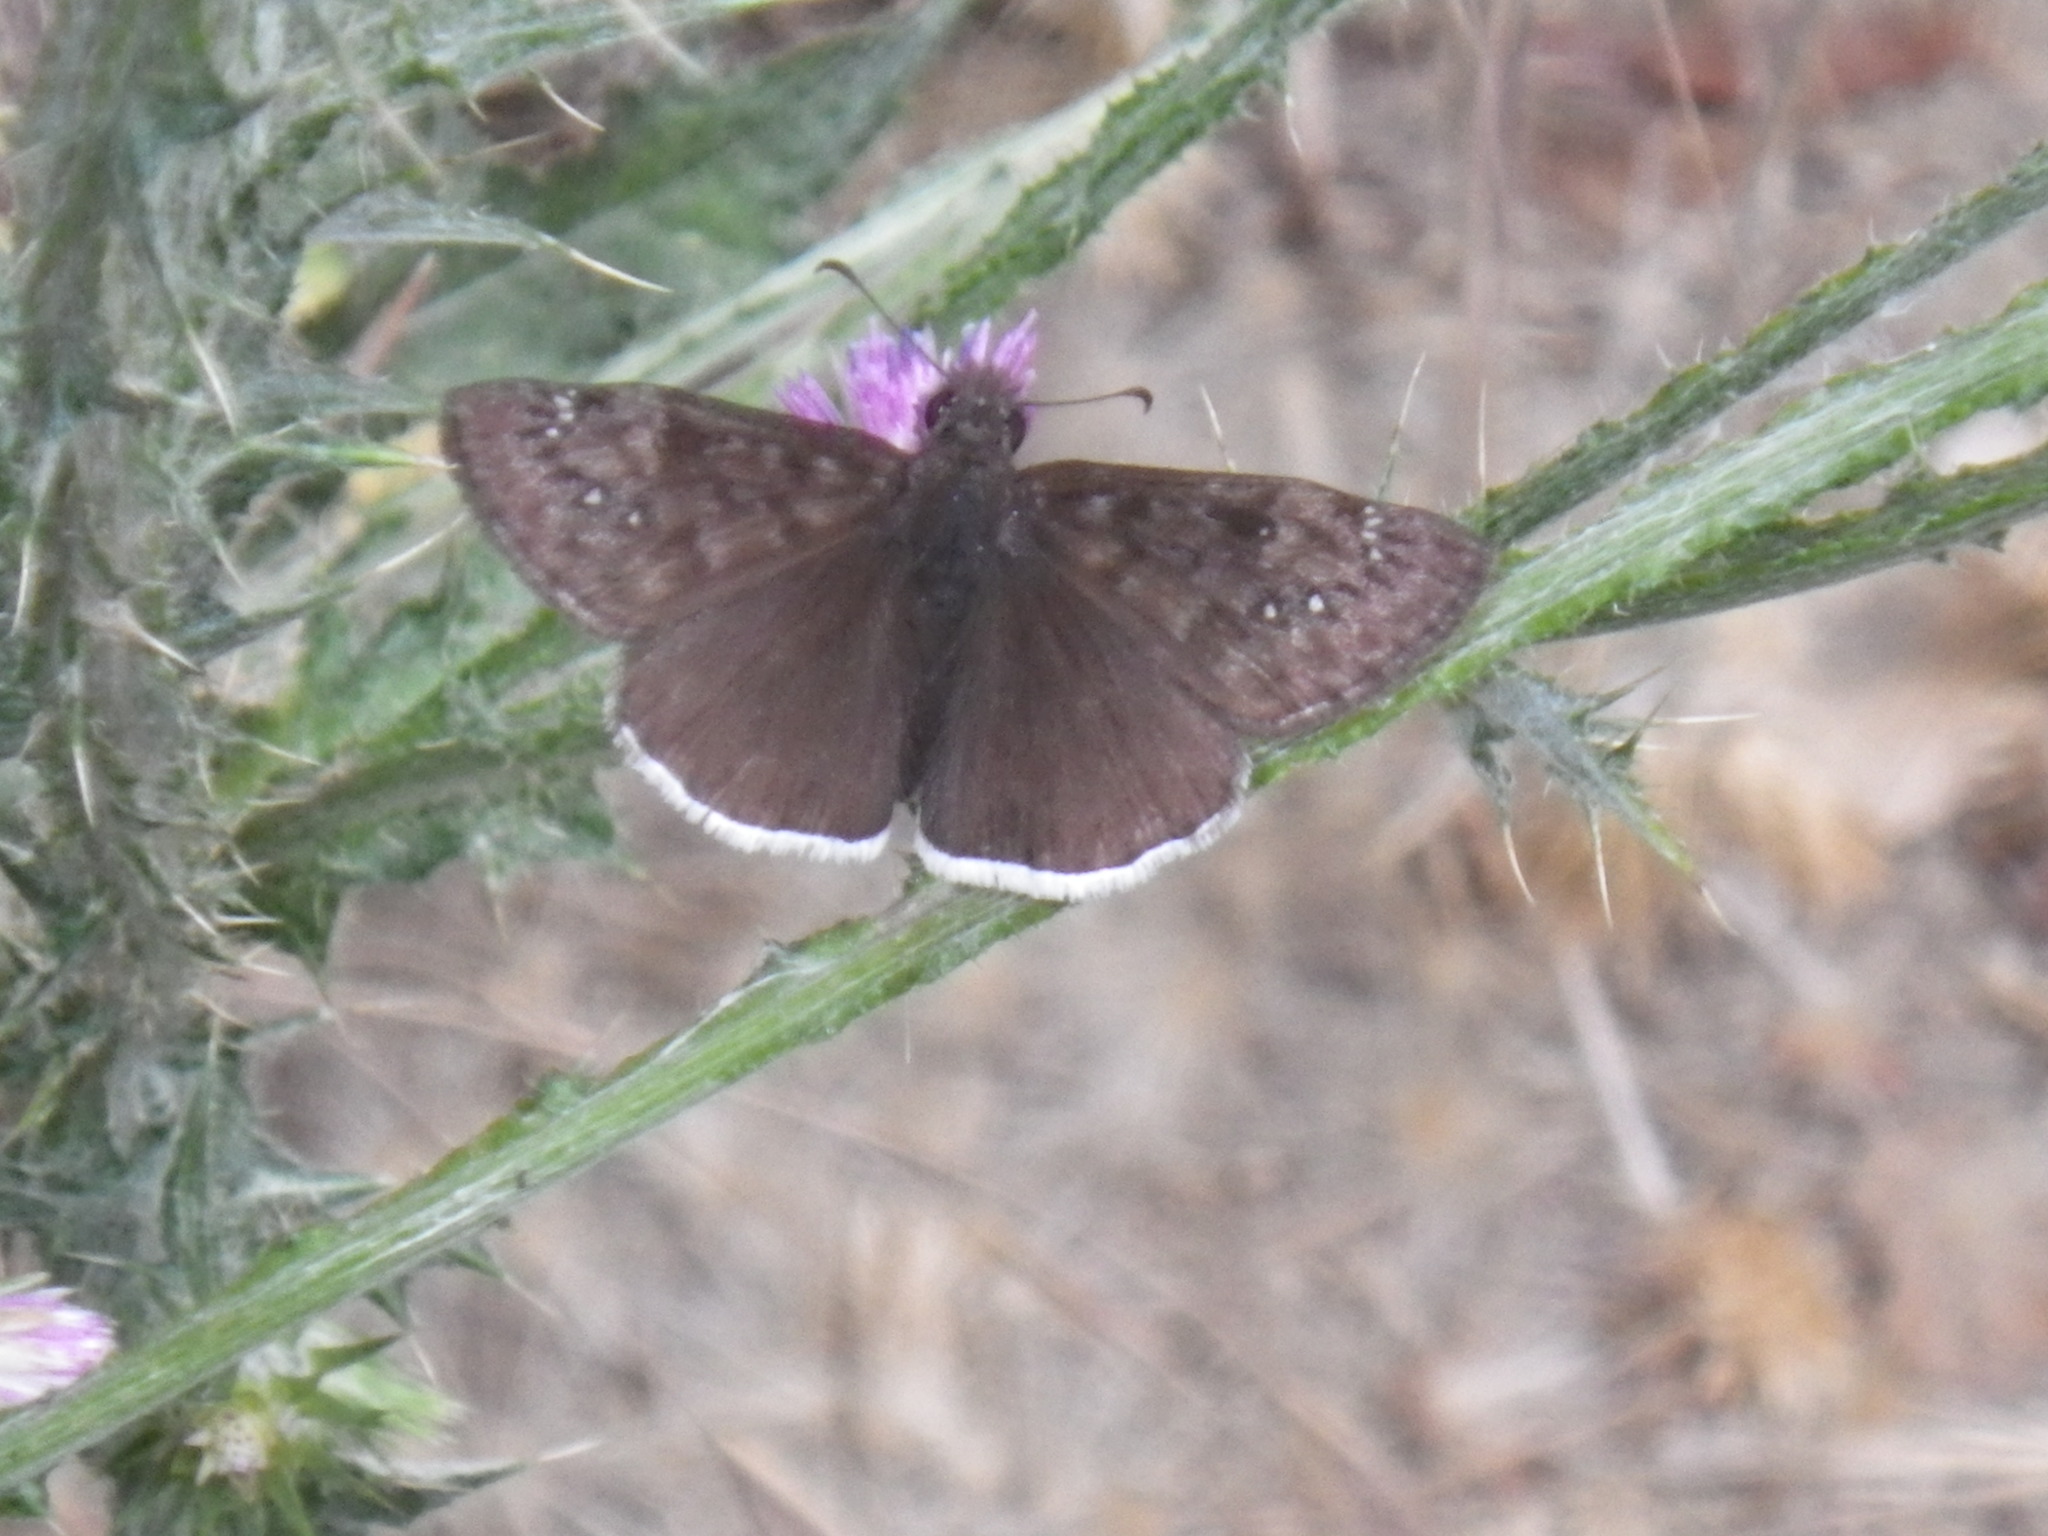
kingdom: Animalia
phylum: Arthropoda
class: Insecta
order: Lepidoptera
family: Hesperiidae
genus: Erynnis
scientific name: Erynnis tristis
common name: Mournful duskywing
